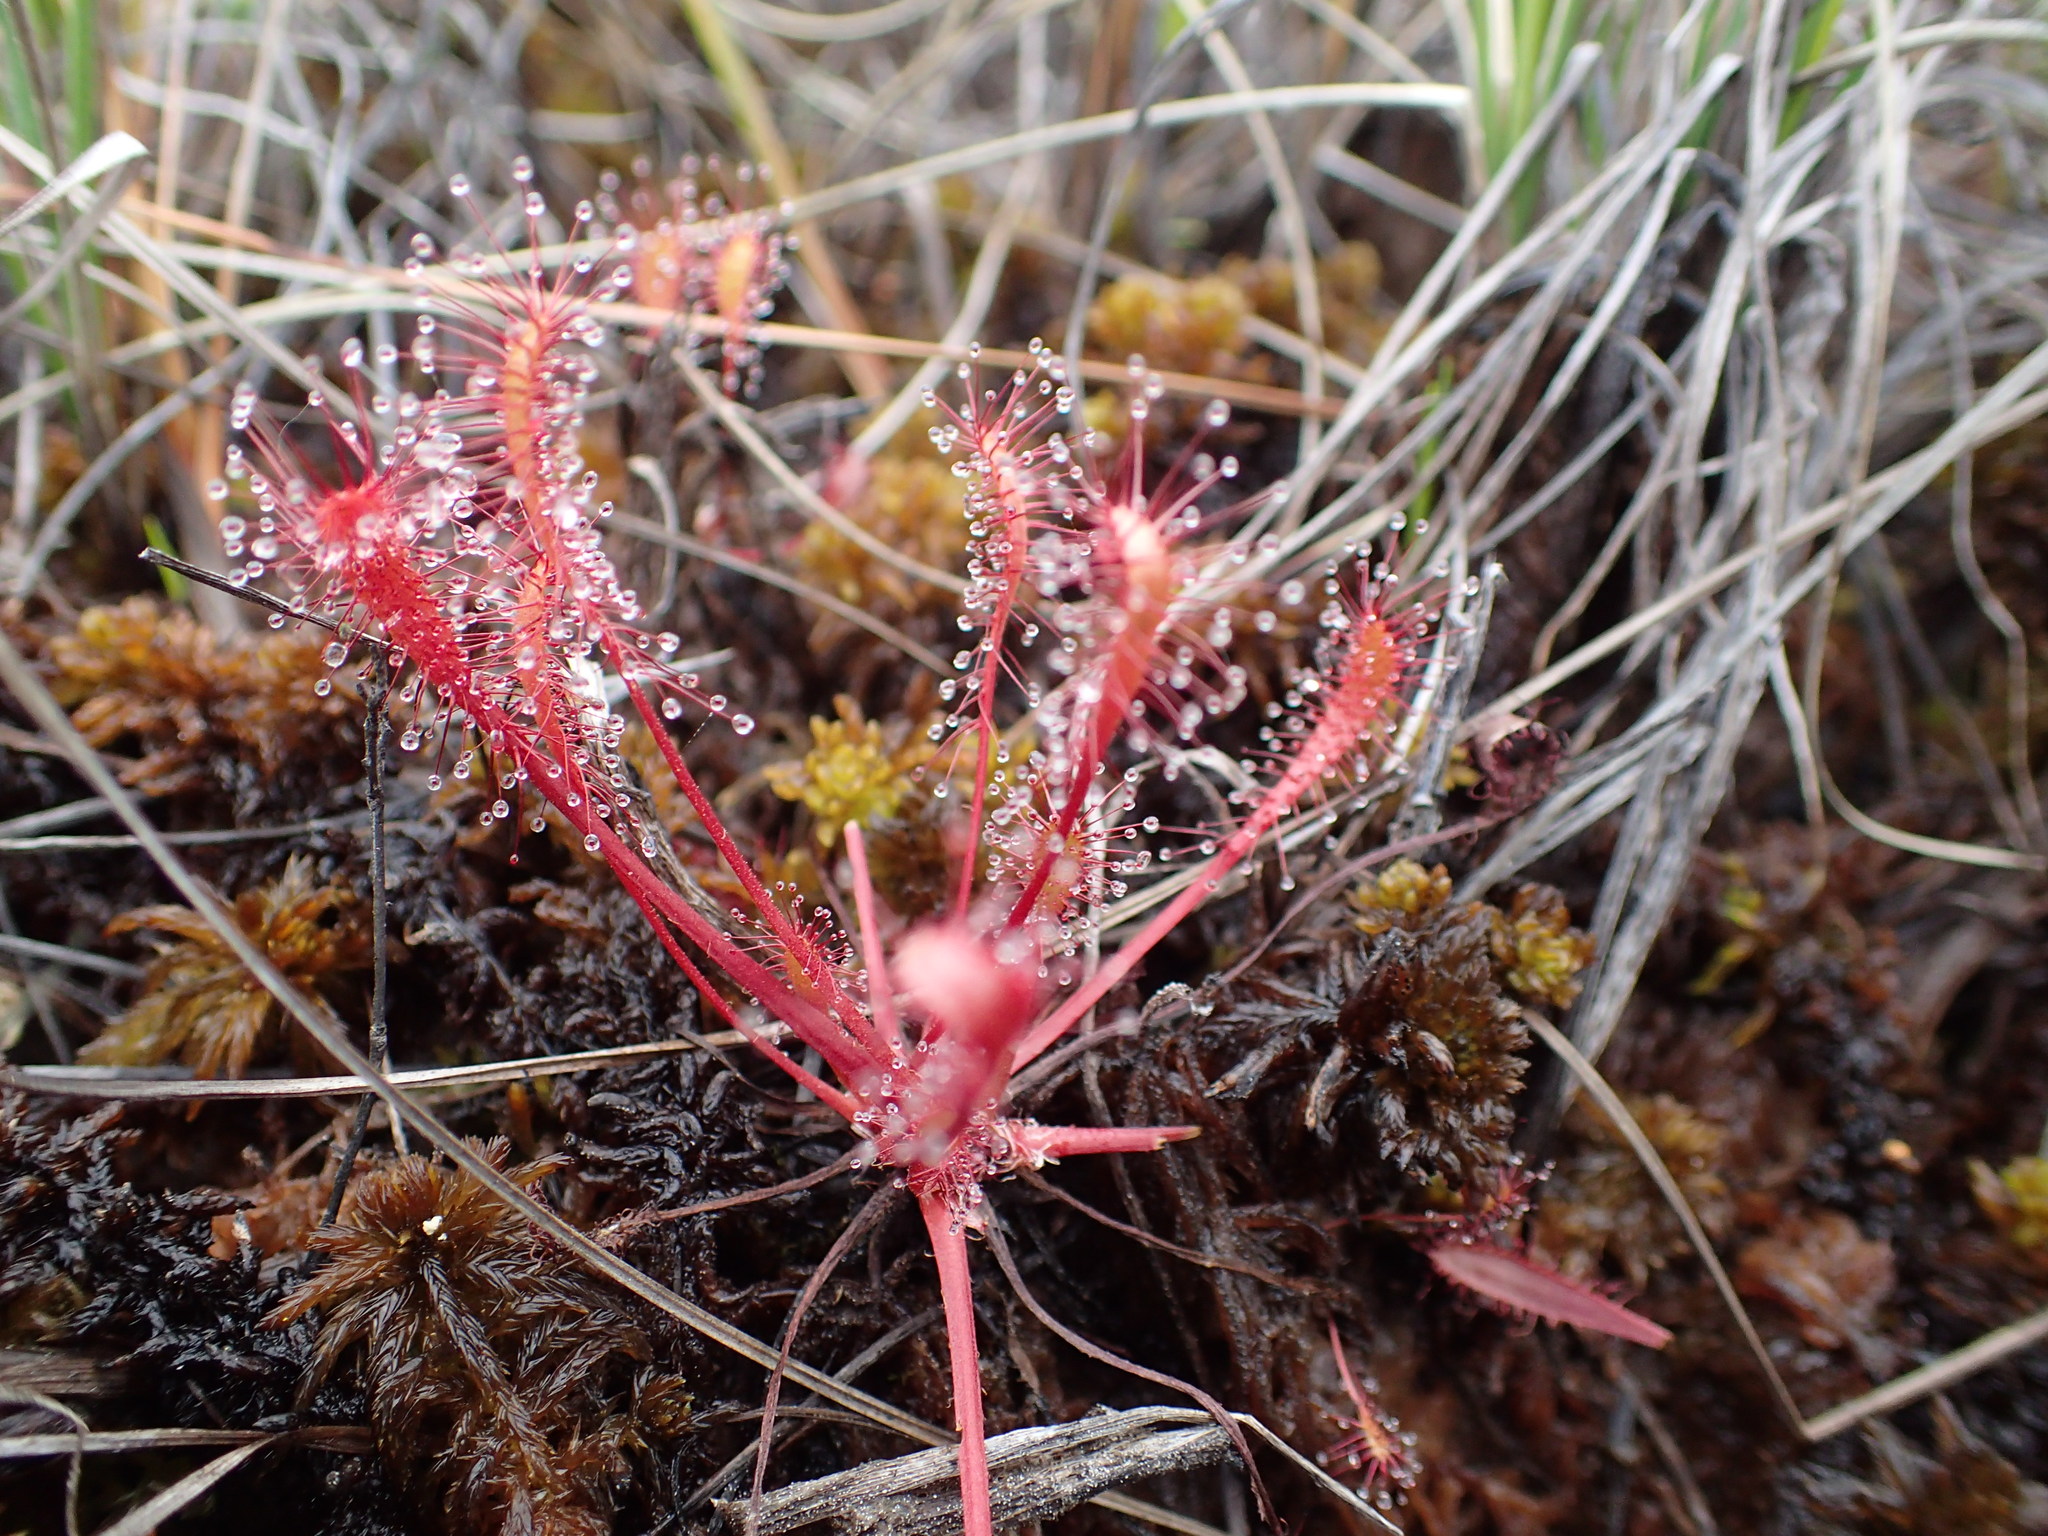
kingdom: Plantae
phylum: Tracheophyta
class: Magnoliopsida
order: Caryophyllales
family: Droseraceae
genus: Drosera
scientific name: Drosera anglica
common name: Great sundew
